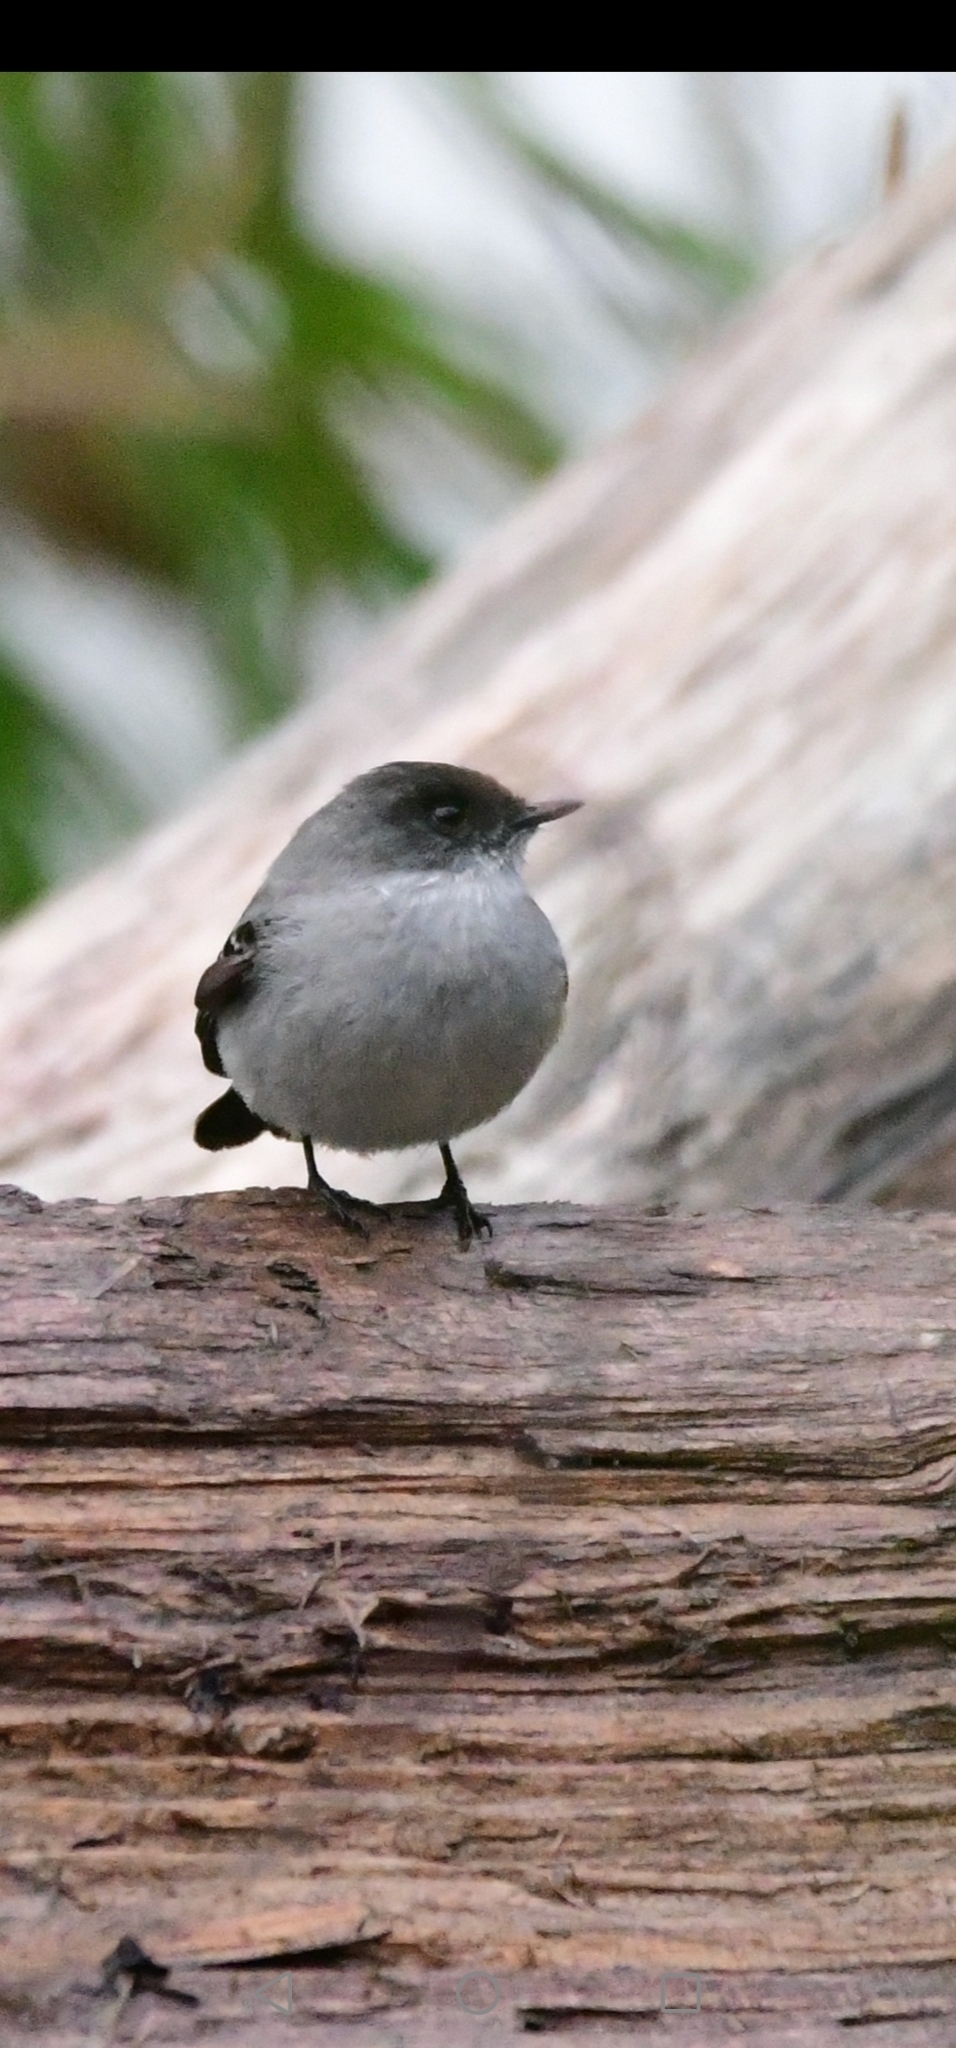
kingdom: Animalia
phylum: Chordata
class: Aves
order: Passeriformes
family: Tyrannidae
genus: Serpophaga
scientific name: Serpophaga cinerea
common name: Torrent tyrannulet
